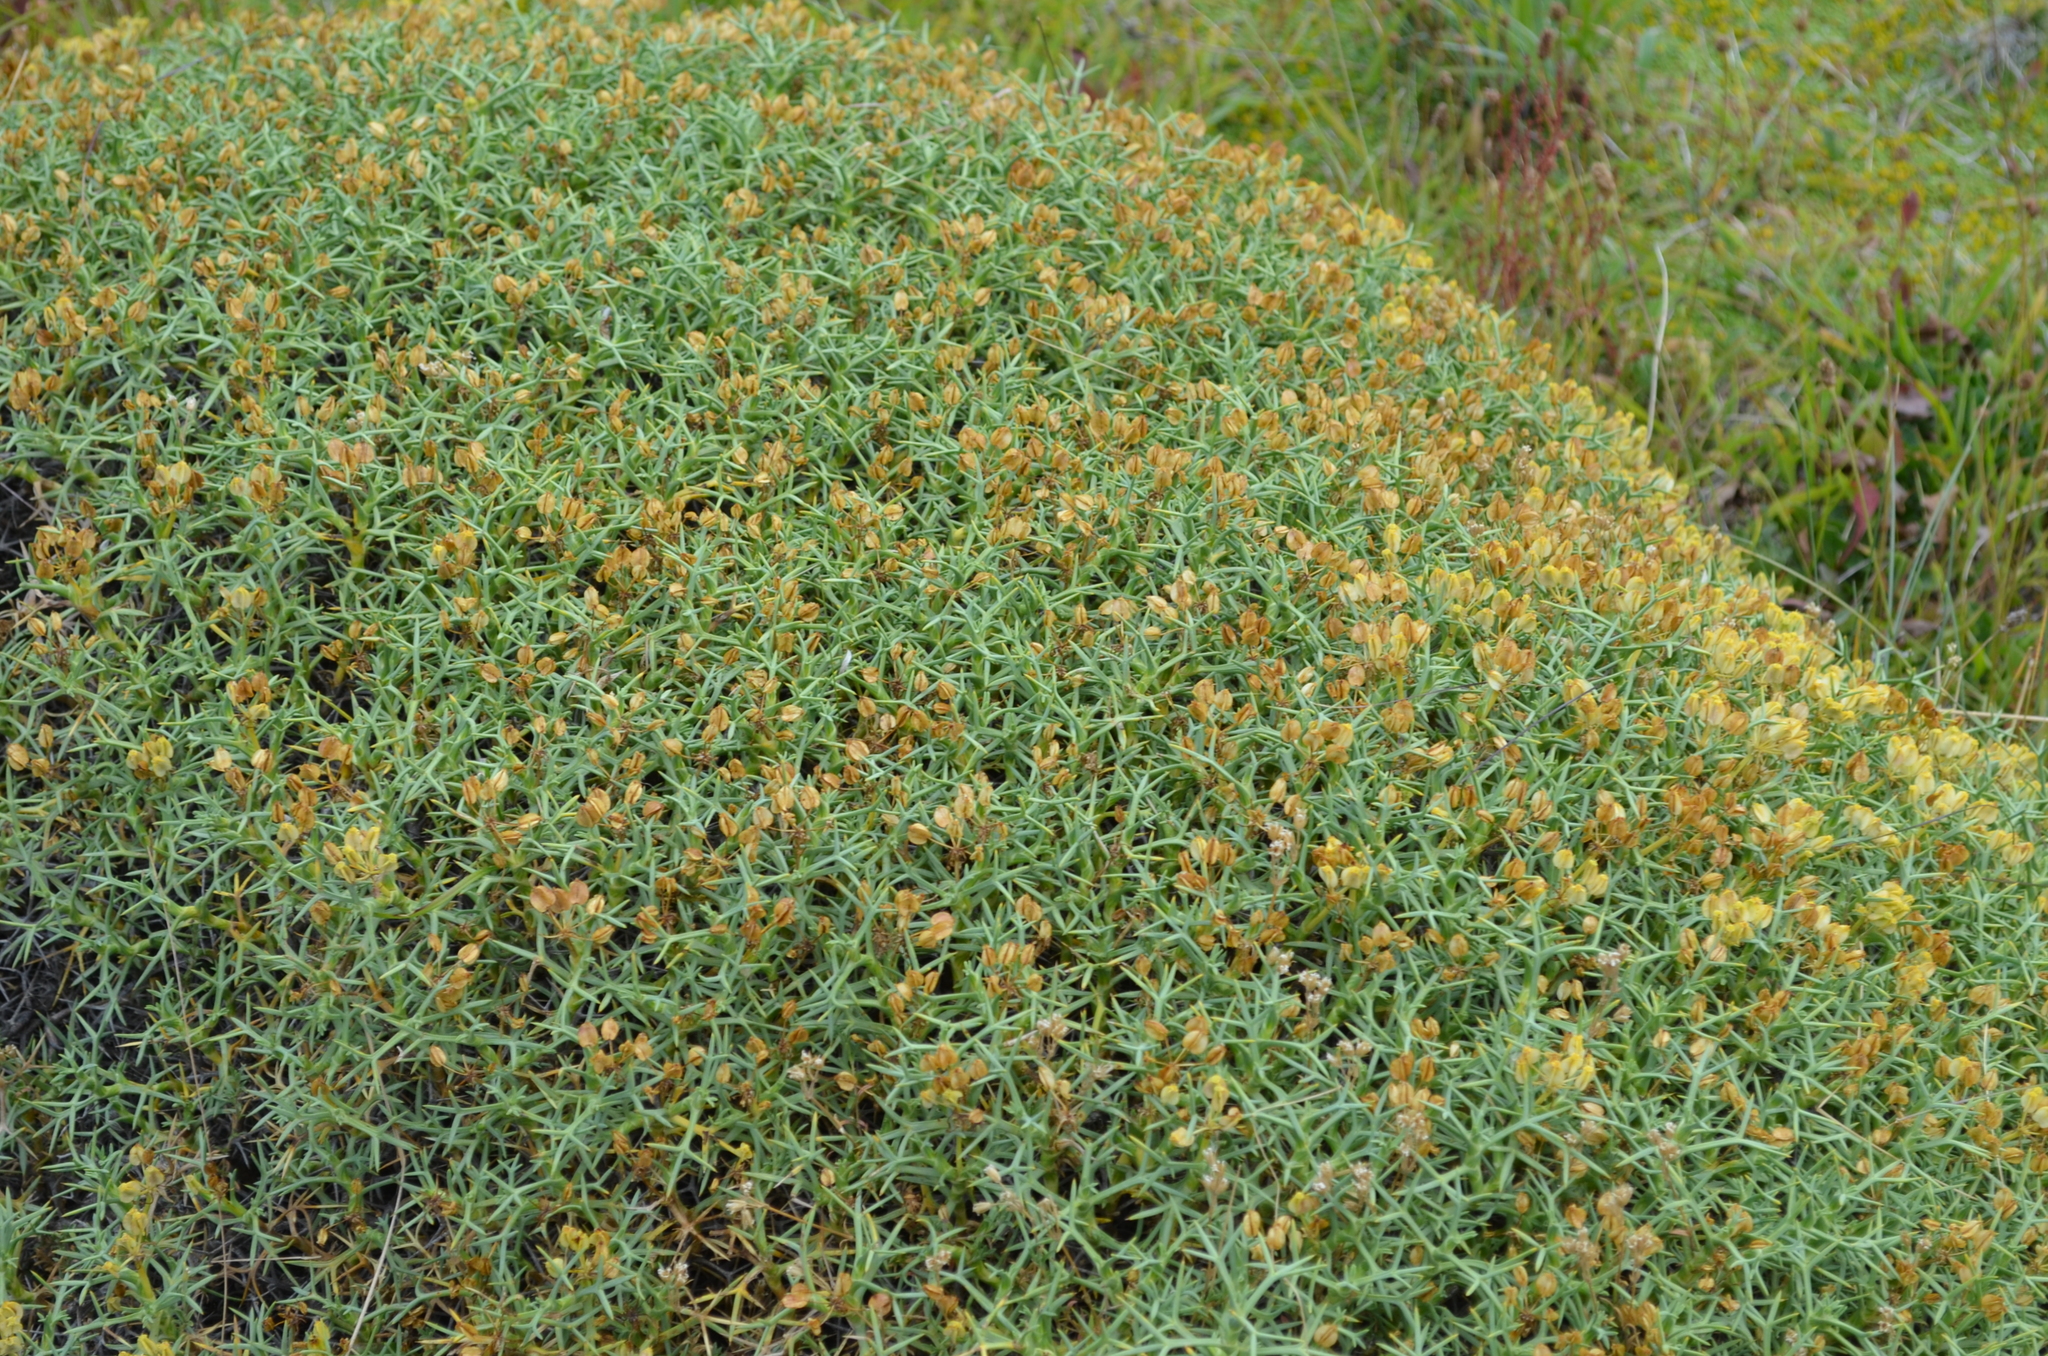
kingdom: Plantae
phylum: Tracheophyta
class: Magnoliopsida
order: Apiales
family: Apiaceae
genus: Azorella
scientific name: Azorella prolifera
